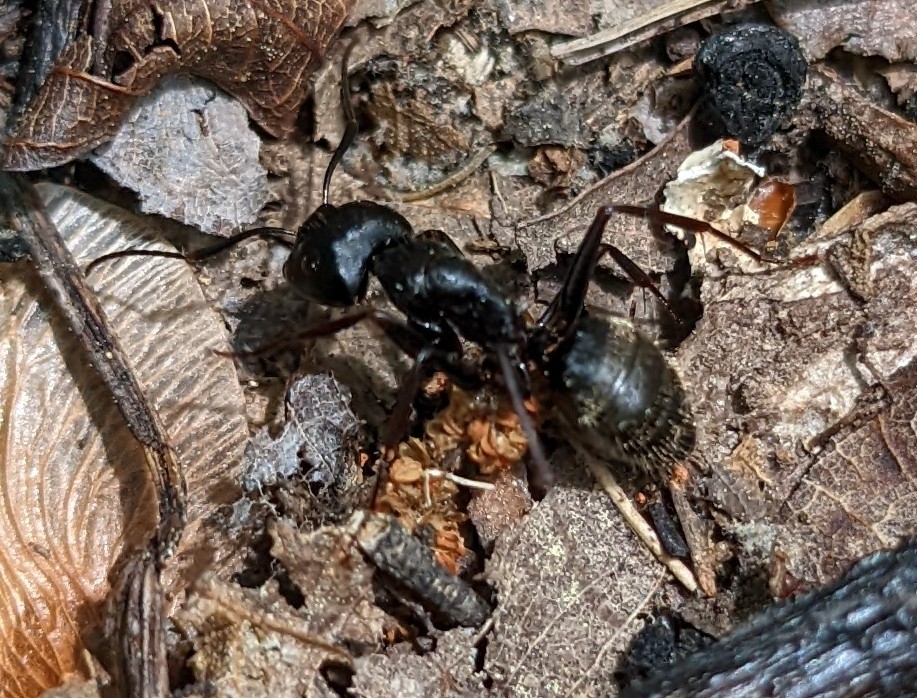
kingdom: Animalia
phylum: Arthropoda
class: Insecta
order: Hymenoptera
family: Formicidae
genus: Camponotus
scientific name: Camponotus pennsylvanicus
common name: Black carpenter ant
